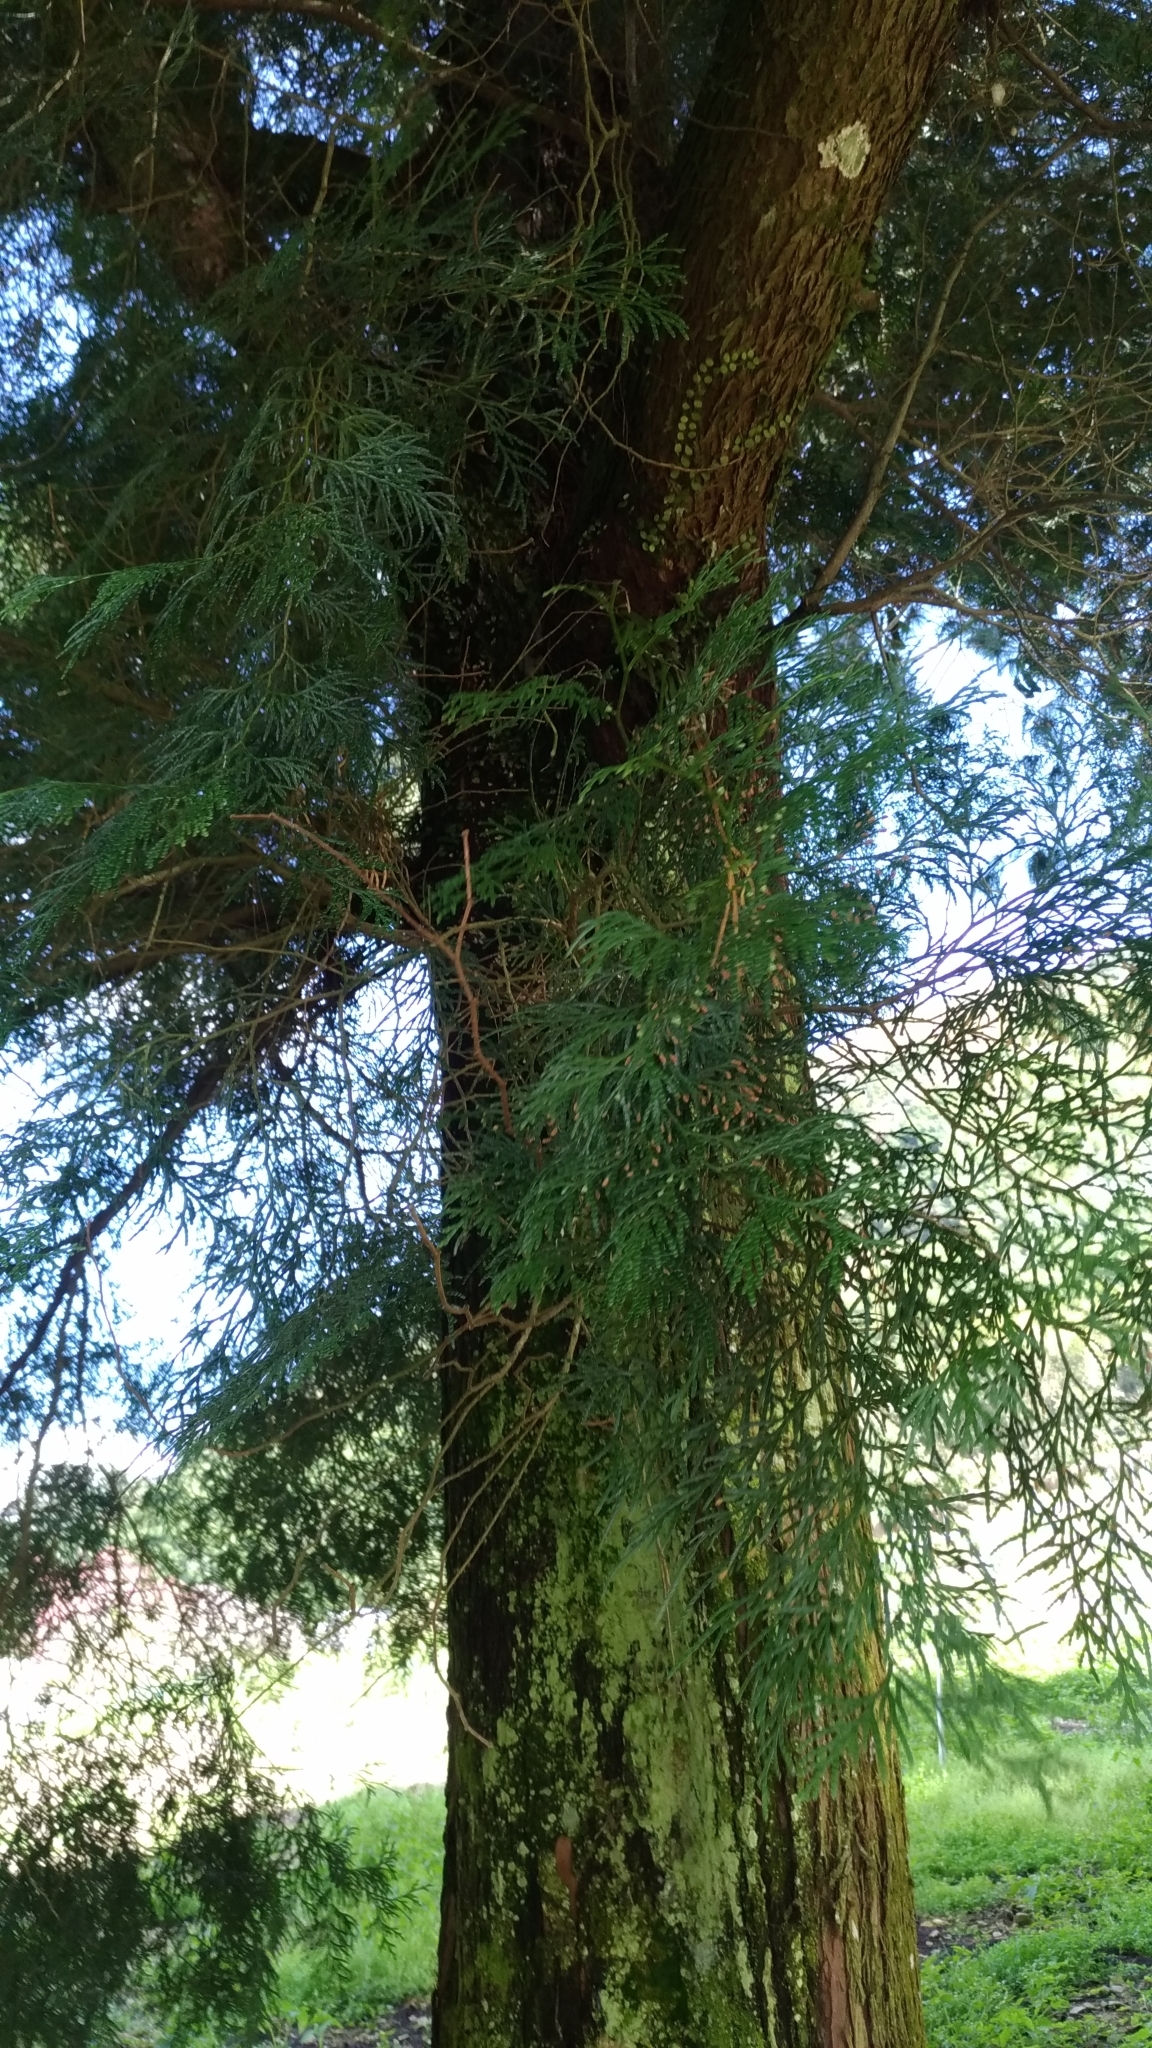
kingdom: Plantae
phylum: Tracheophyta
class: Pinopsida
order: Pinales
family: Cupressaceae
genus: Calocedrus
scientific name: Calocedrus formosana
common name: Taiwan incense-cedar
